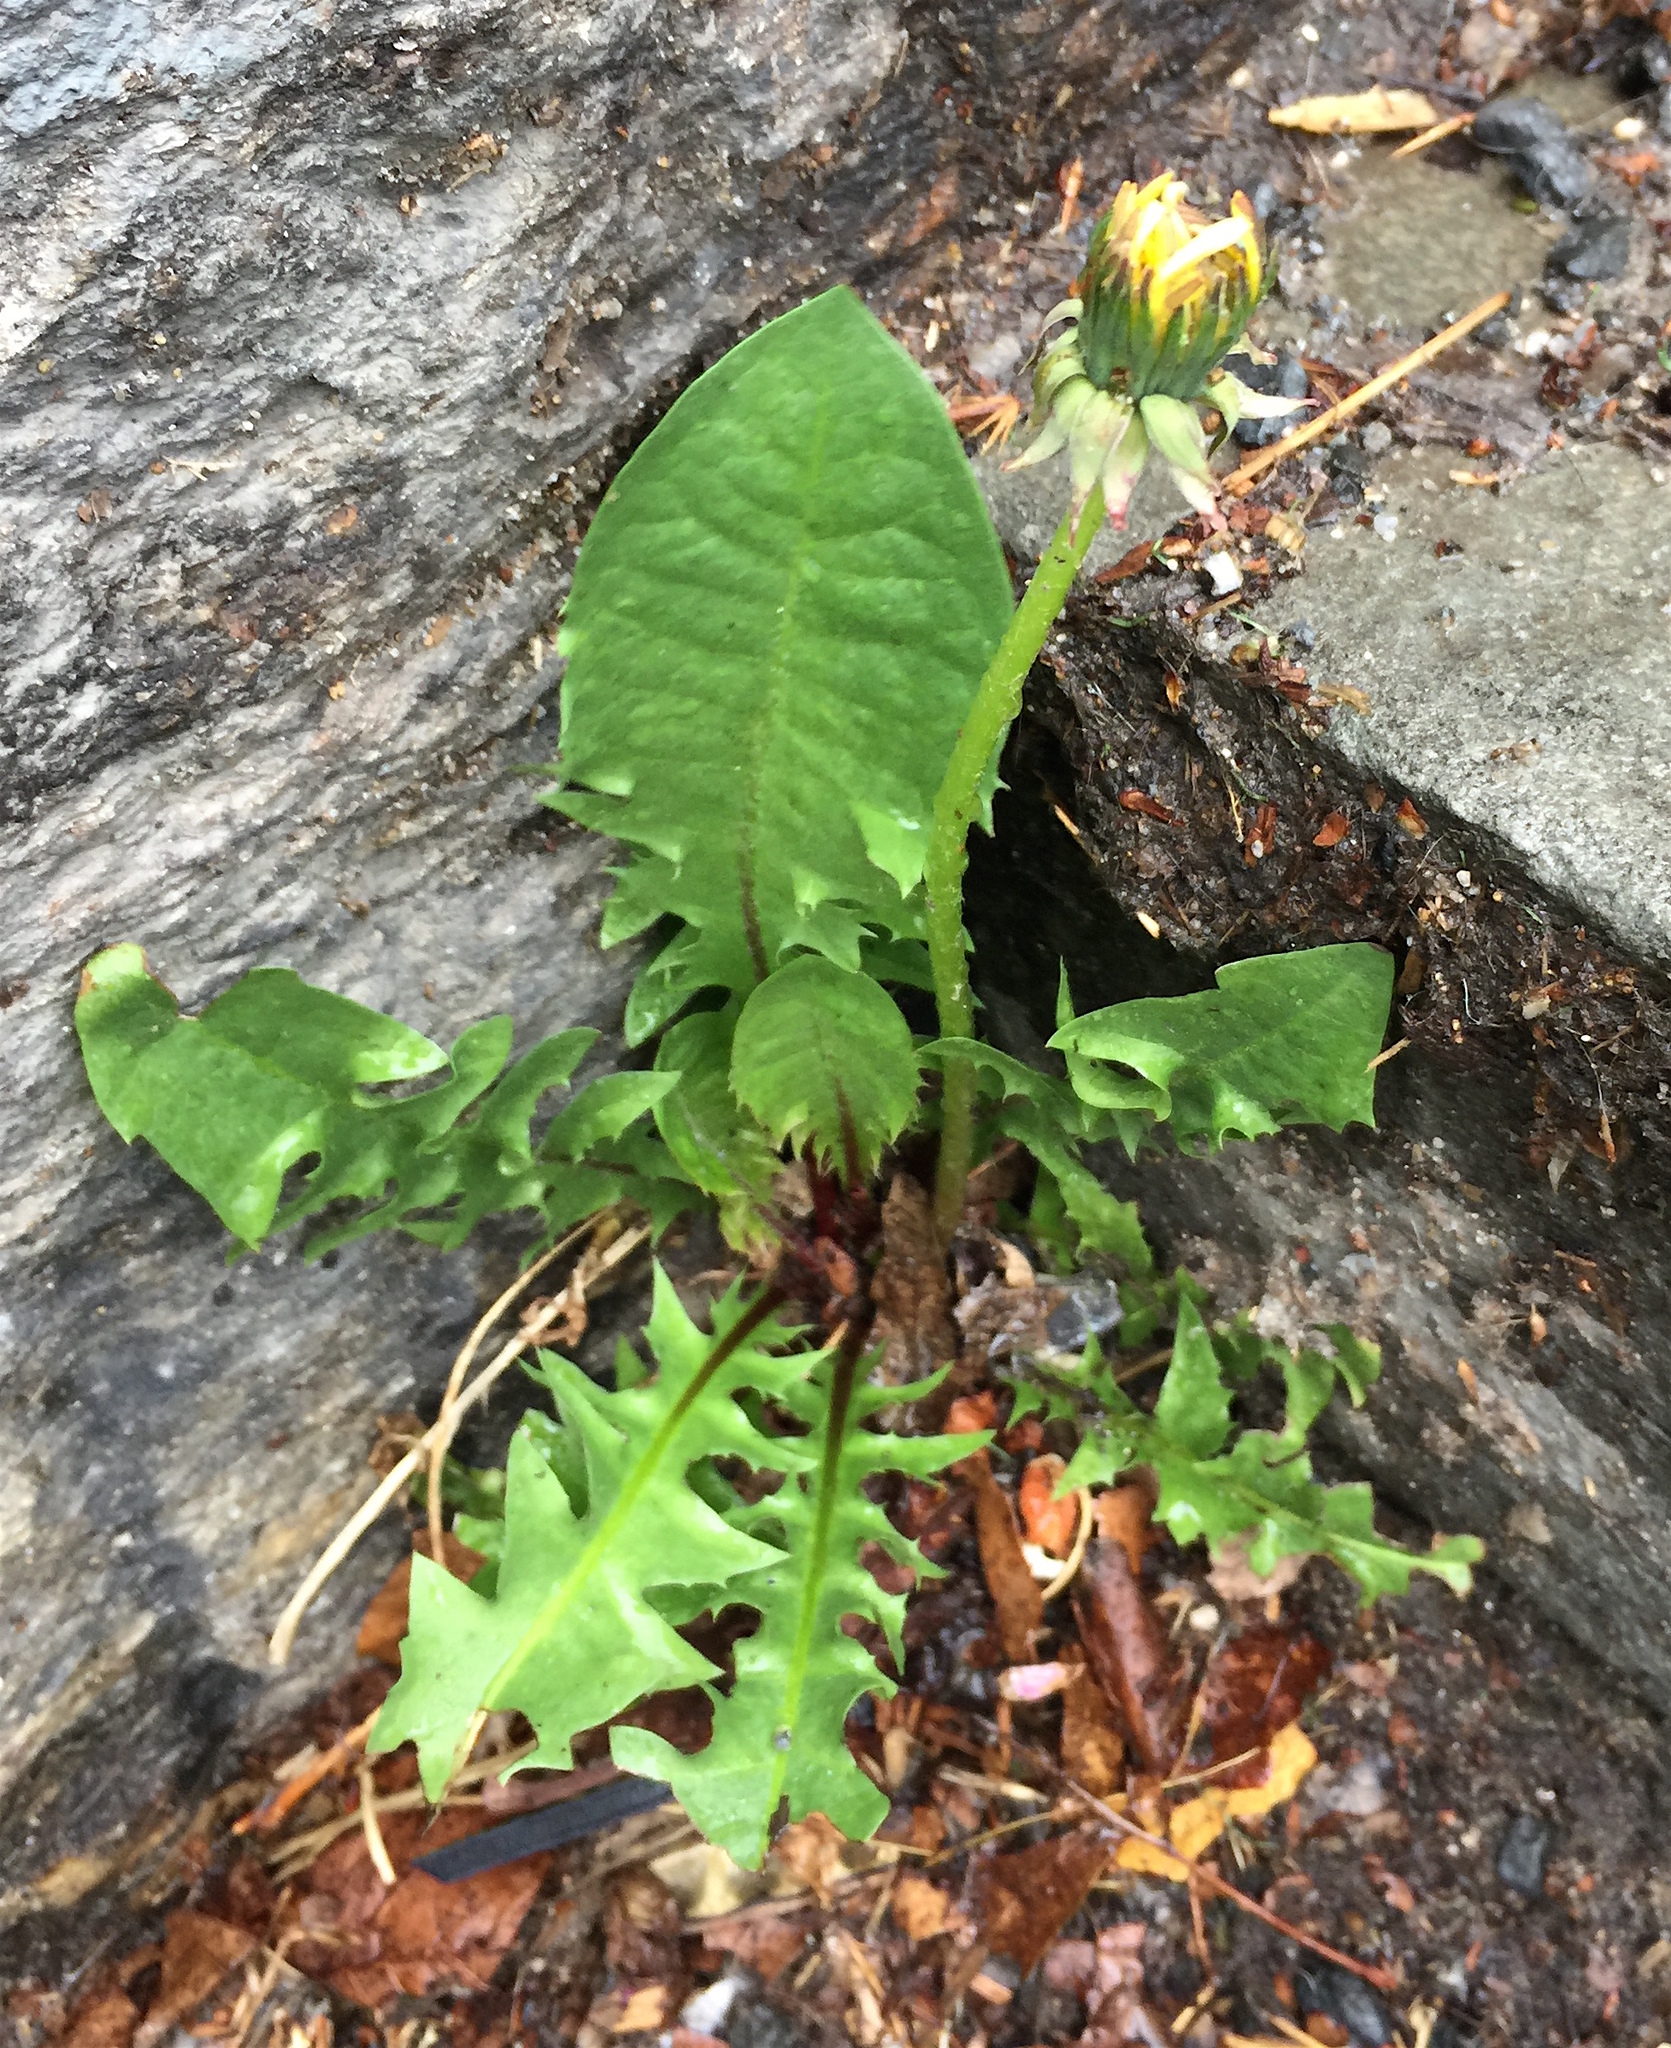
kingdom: Plantae
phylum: Tracheophyta
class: Magnoliopsida
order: Asterales
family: Asteraceae
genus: Taraxacum
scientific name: Taraxacum officinale
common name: Common dandelion
